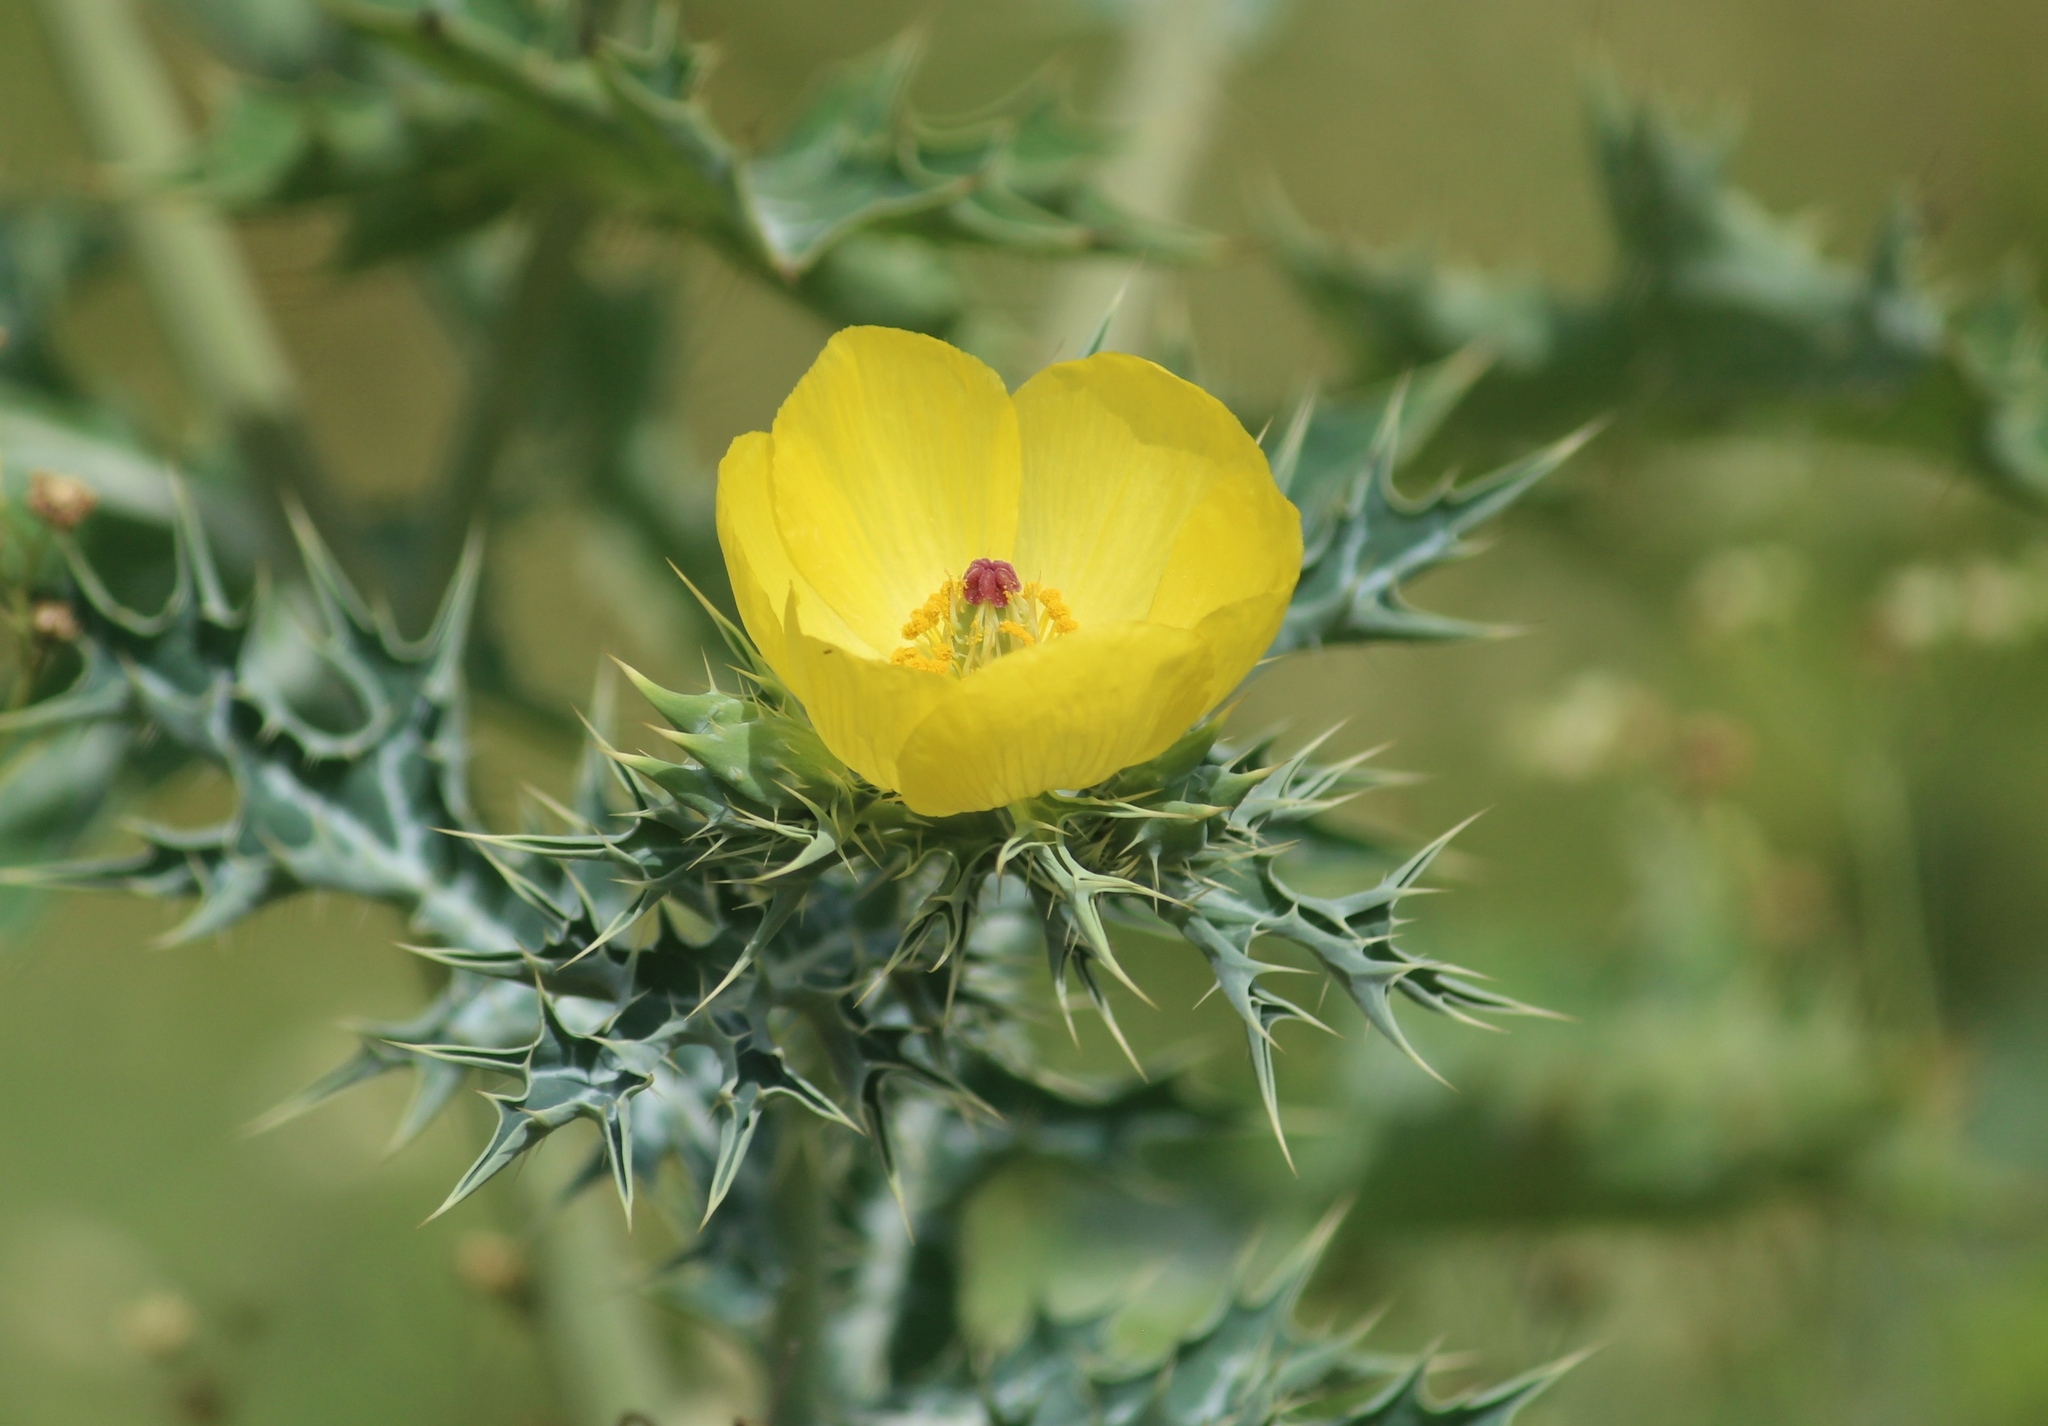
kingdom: Plantae
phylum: Tracheophyta
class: Magnoliopsida
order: Ranunculales
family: Papaveraceae
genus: Argemone
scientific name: Argemone mexicana
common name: Mexican poppy
